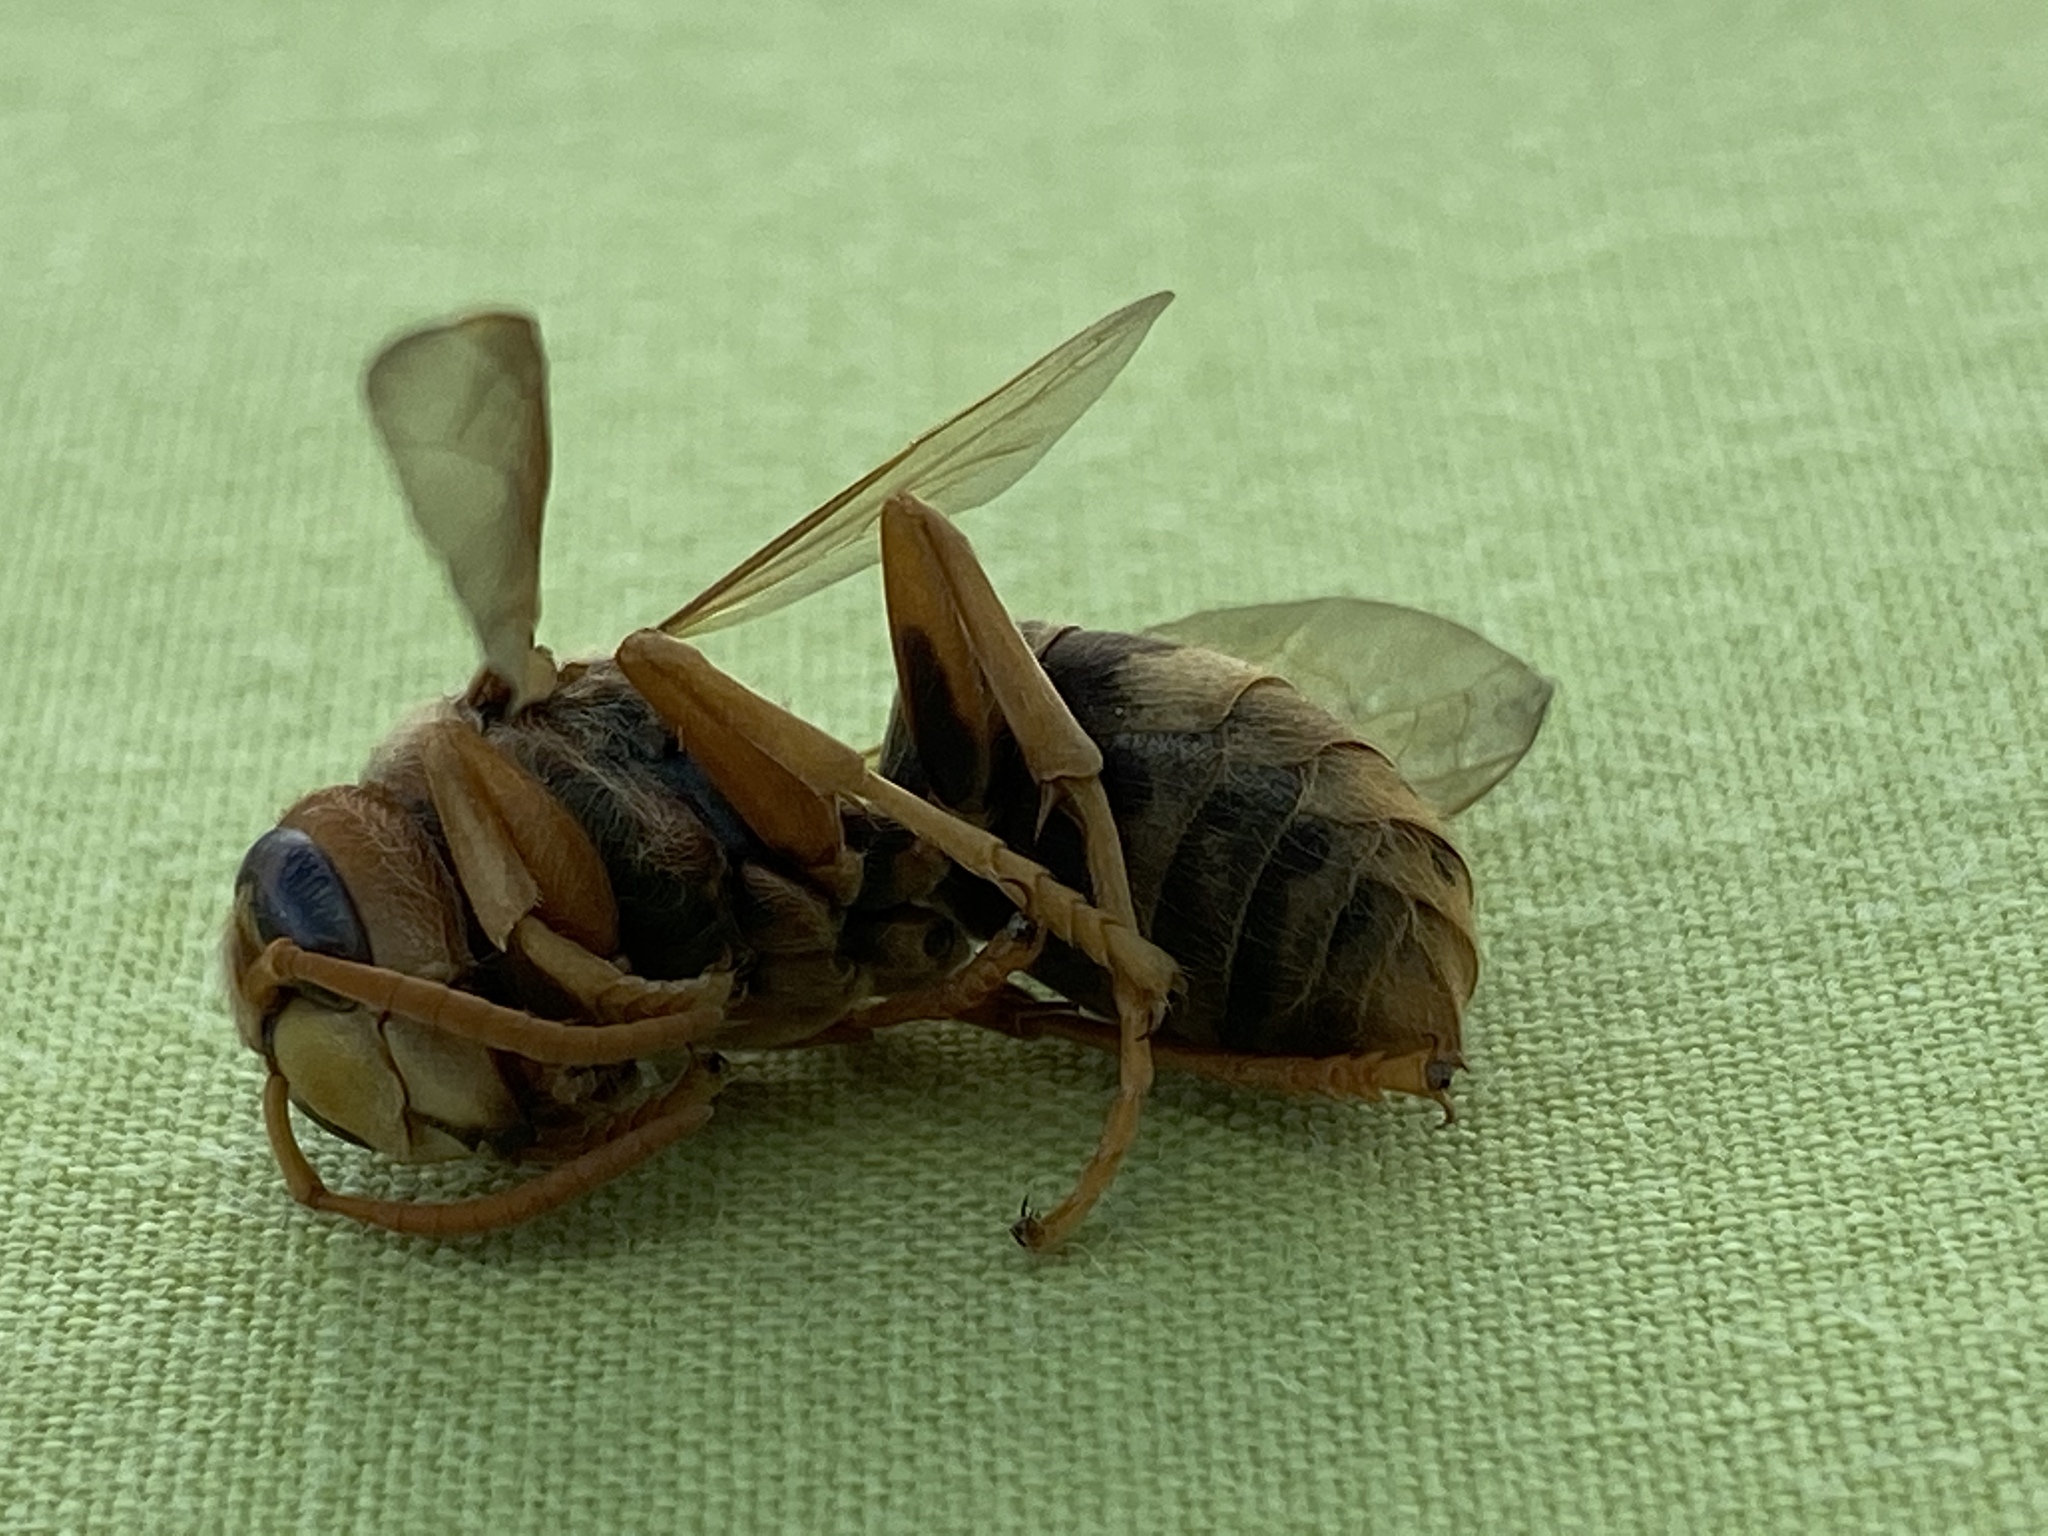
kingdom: Animalia
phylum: Arthropoda
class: Insecta
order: Hymenoptera
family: Vespidae
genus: Vespa
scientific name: Vespa crabro
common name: Hornet
